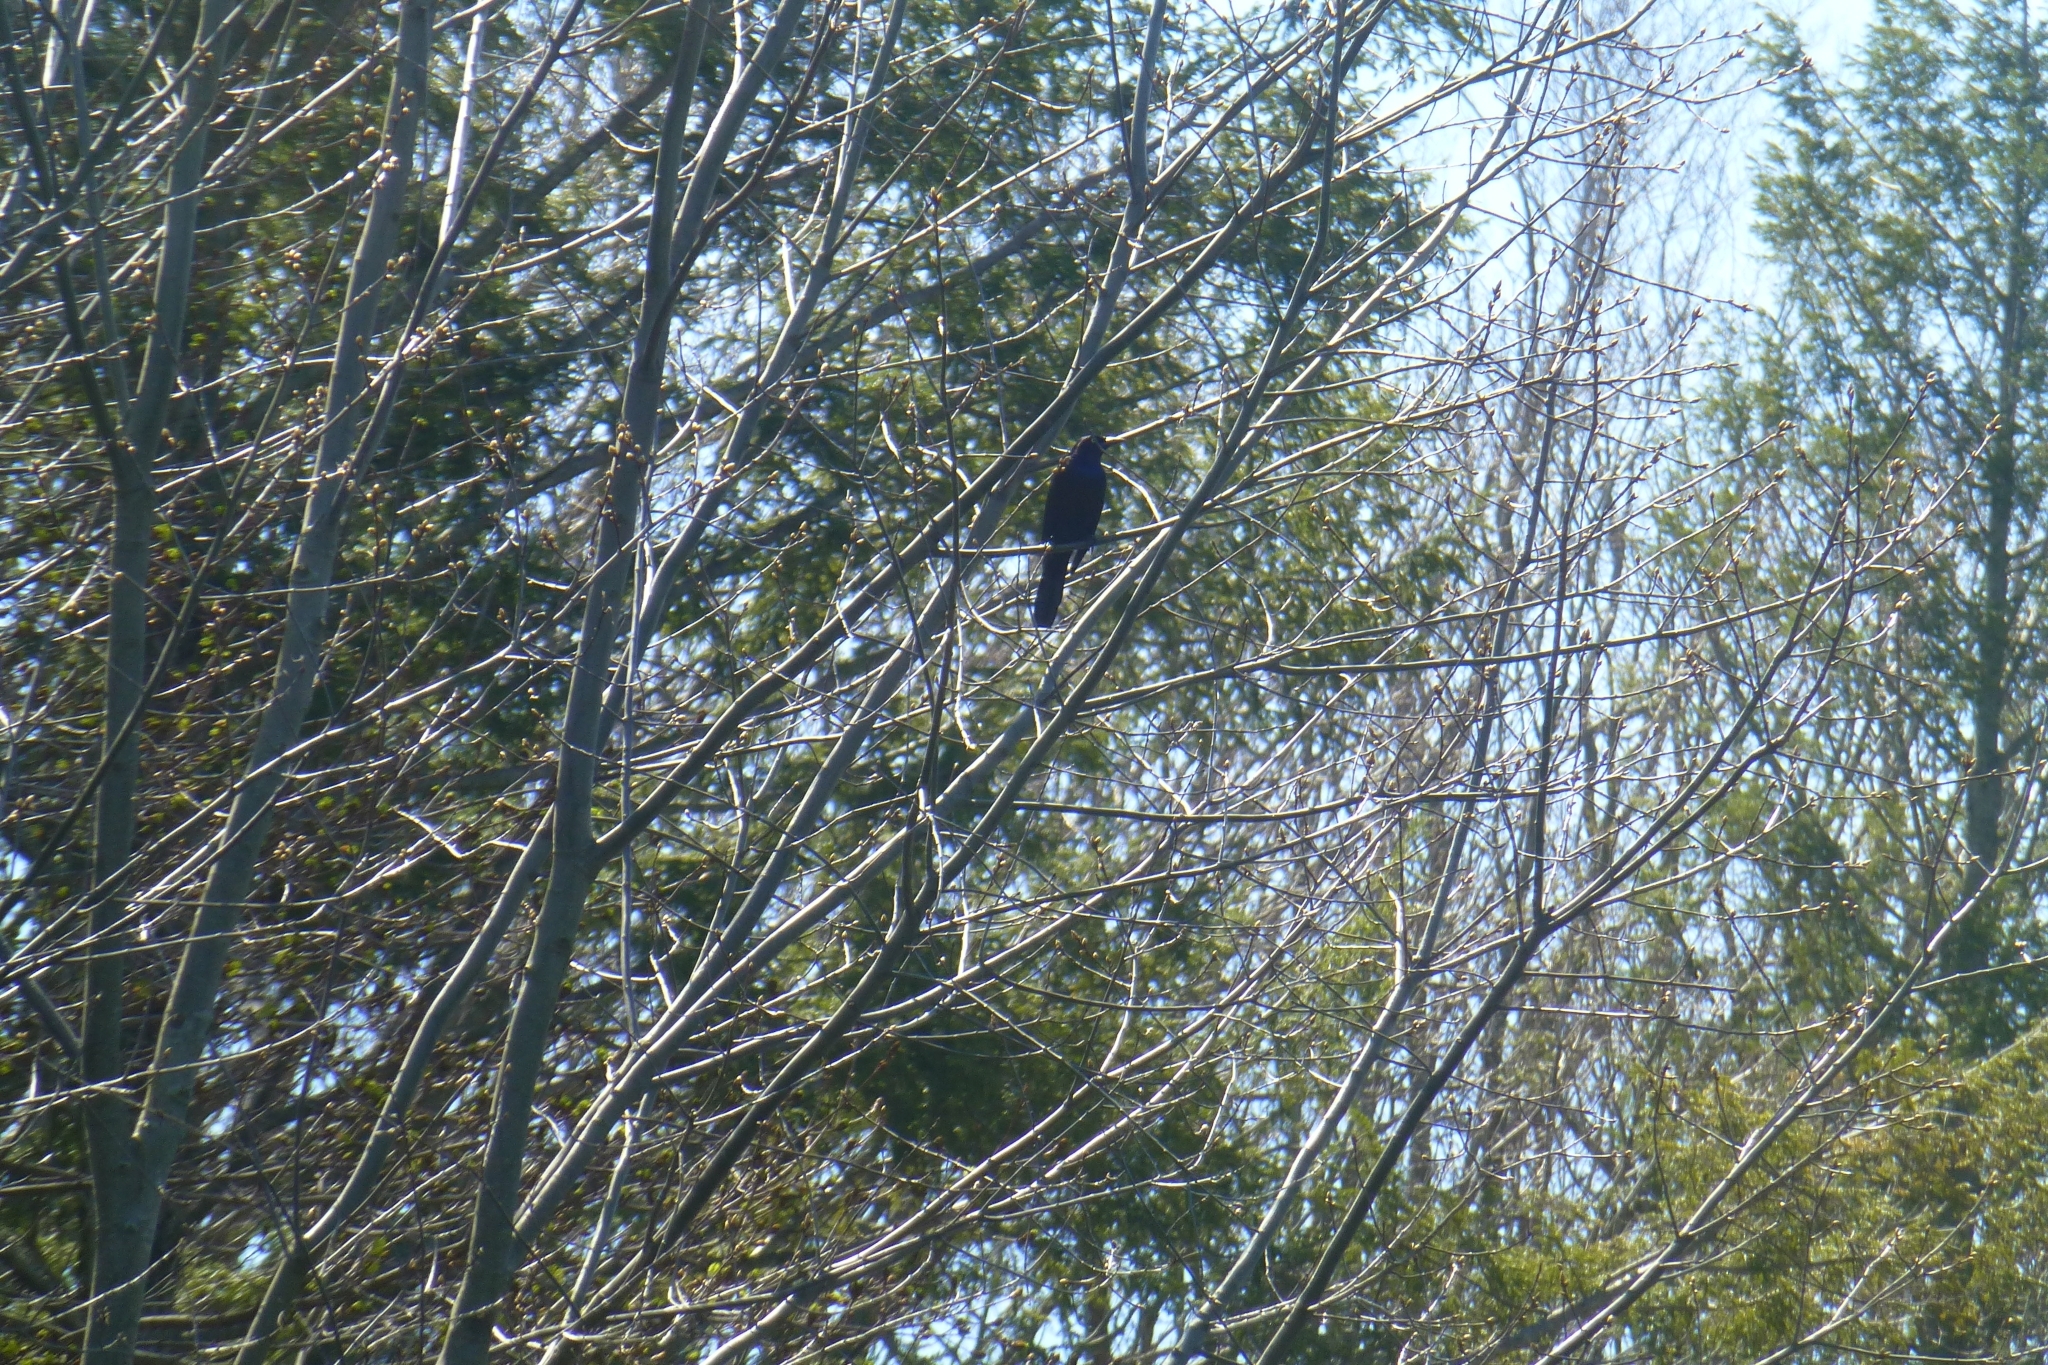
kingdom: Animalia
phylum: Chordata
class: Aves
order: Passeriformes
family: Icteridae
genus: Quiscalus
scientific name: Quiscalus quiscula
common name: Common grackle
